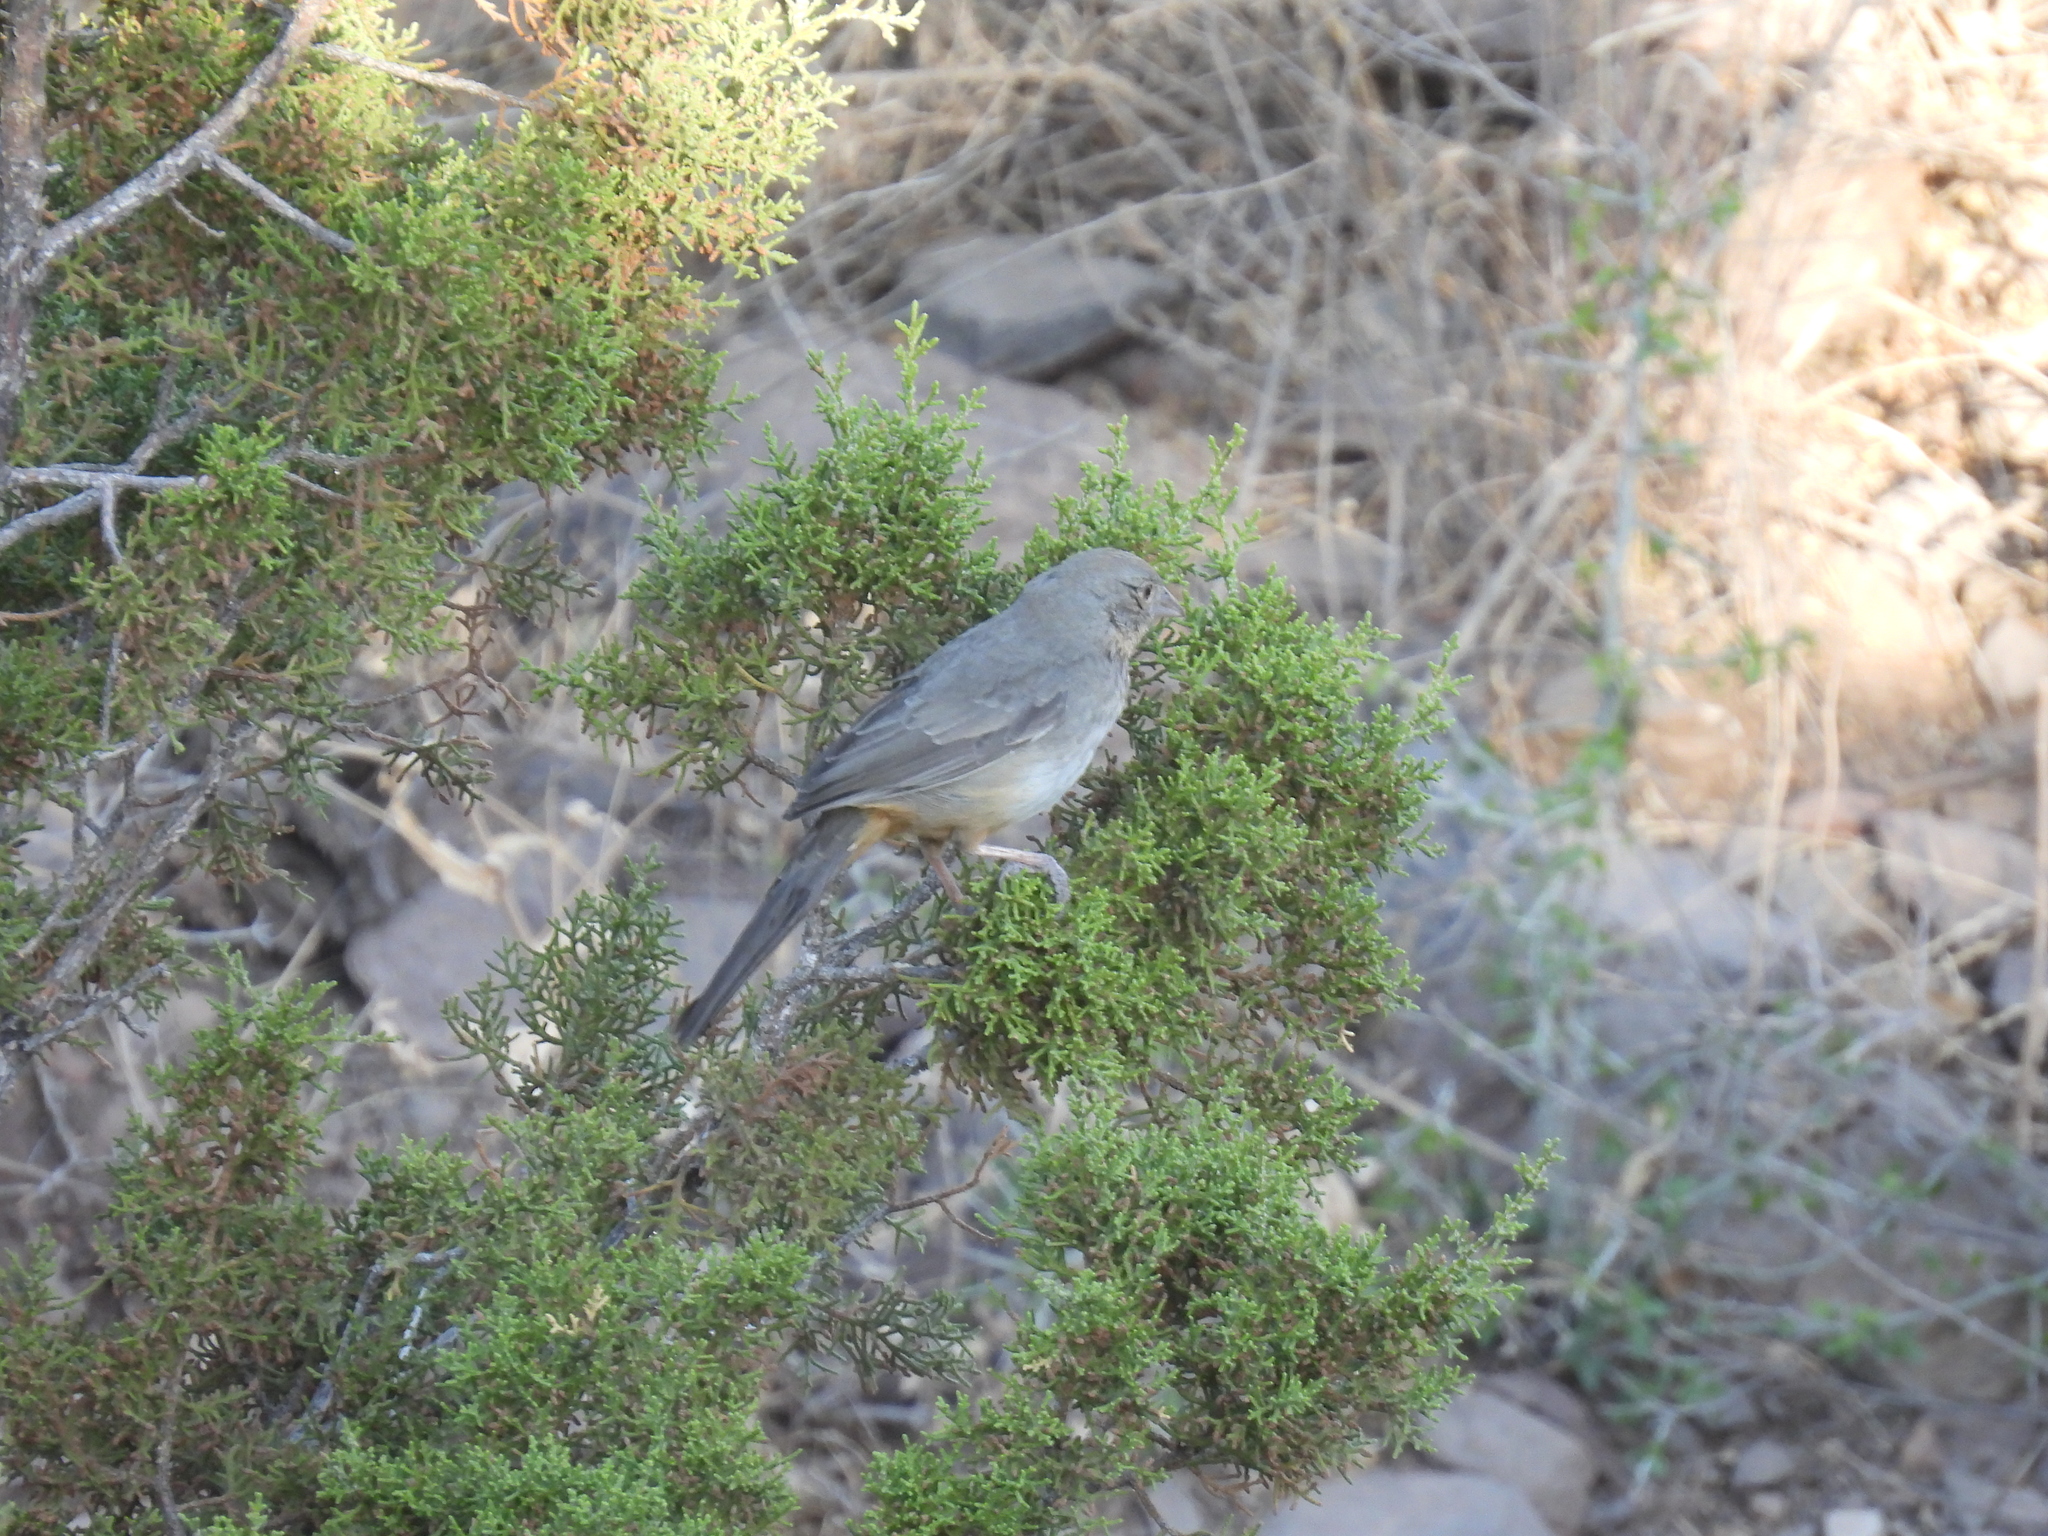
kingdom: Animalia
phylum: Chordata
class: Aves
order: Passeriformes
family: Passerellidae
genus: Melozone
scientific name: Melozone fusca
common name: Canyon towhee
